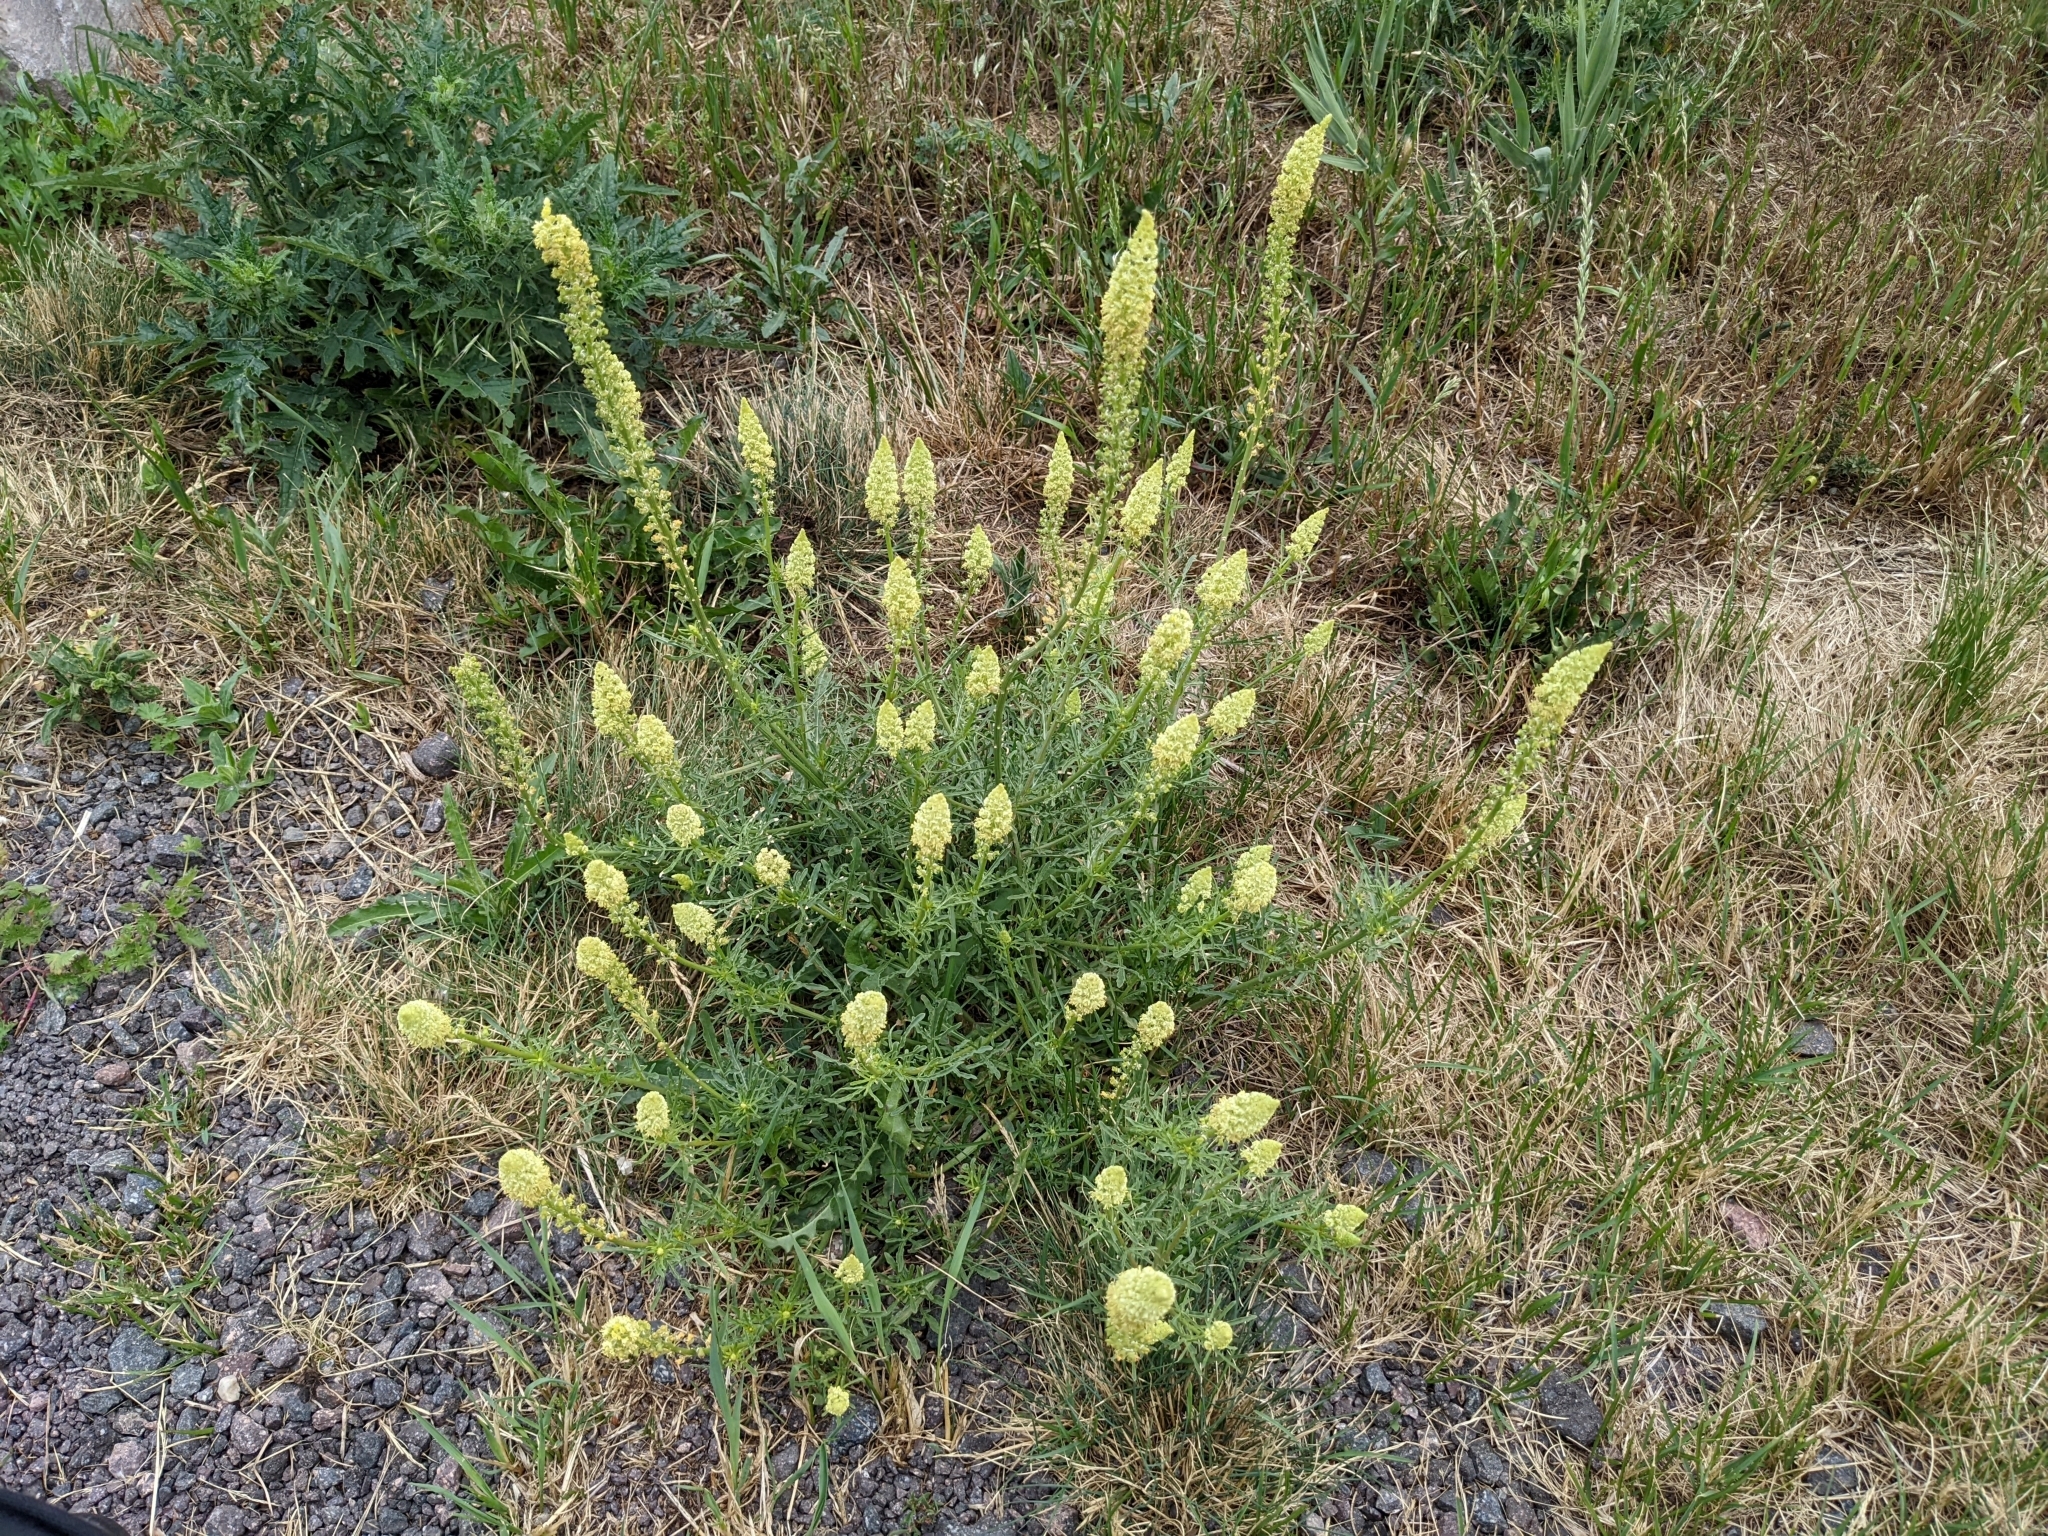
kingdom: Plantae
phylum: Tracheophyta
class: Magnoliopsida
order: Brassicales
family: Resedaceae
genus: Reseda
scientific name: Reseda lutea
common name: Wild mignonette
